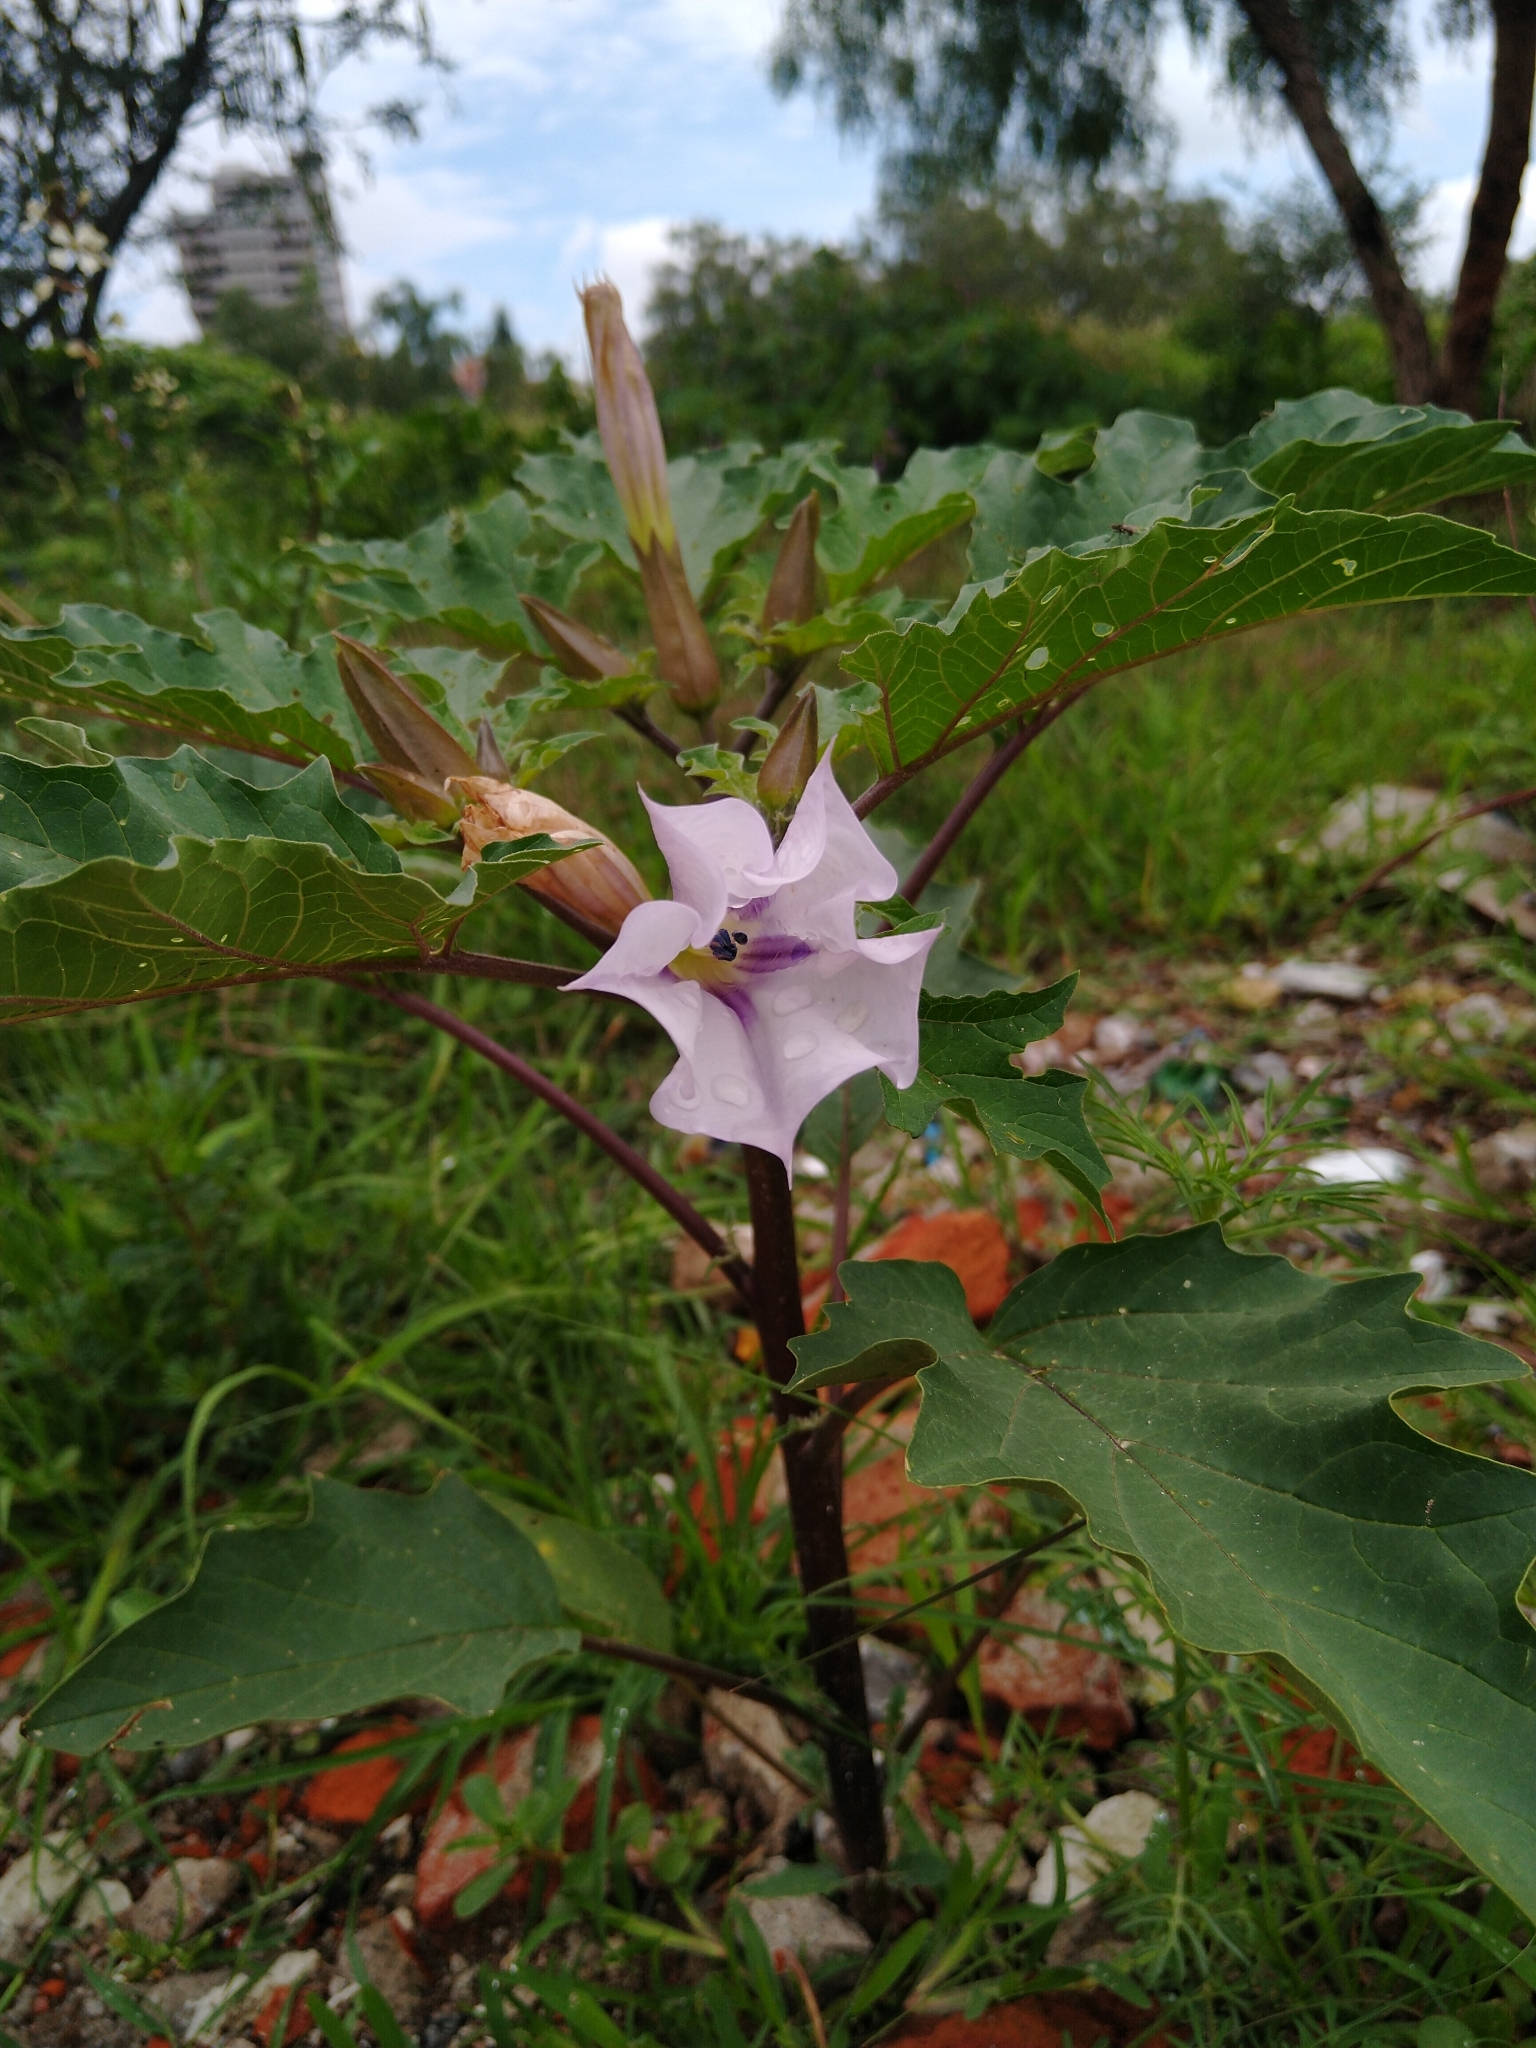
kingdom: Plantae
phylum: Tracheophyta
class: Magnoliopsida
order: Solanales
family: Solanaceae
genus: Datura
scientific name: Datura stramonium
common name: Thorn-apple
